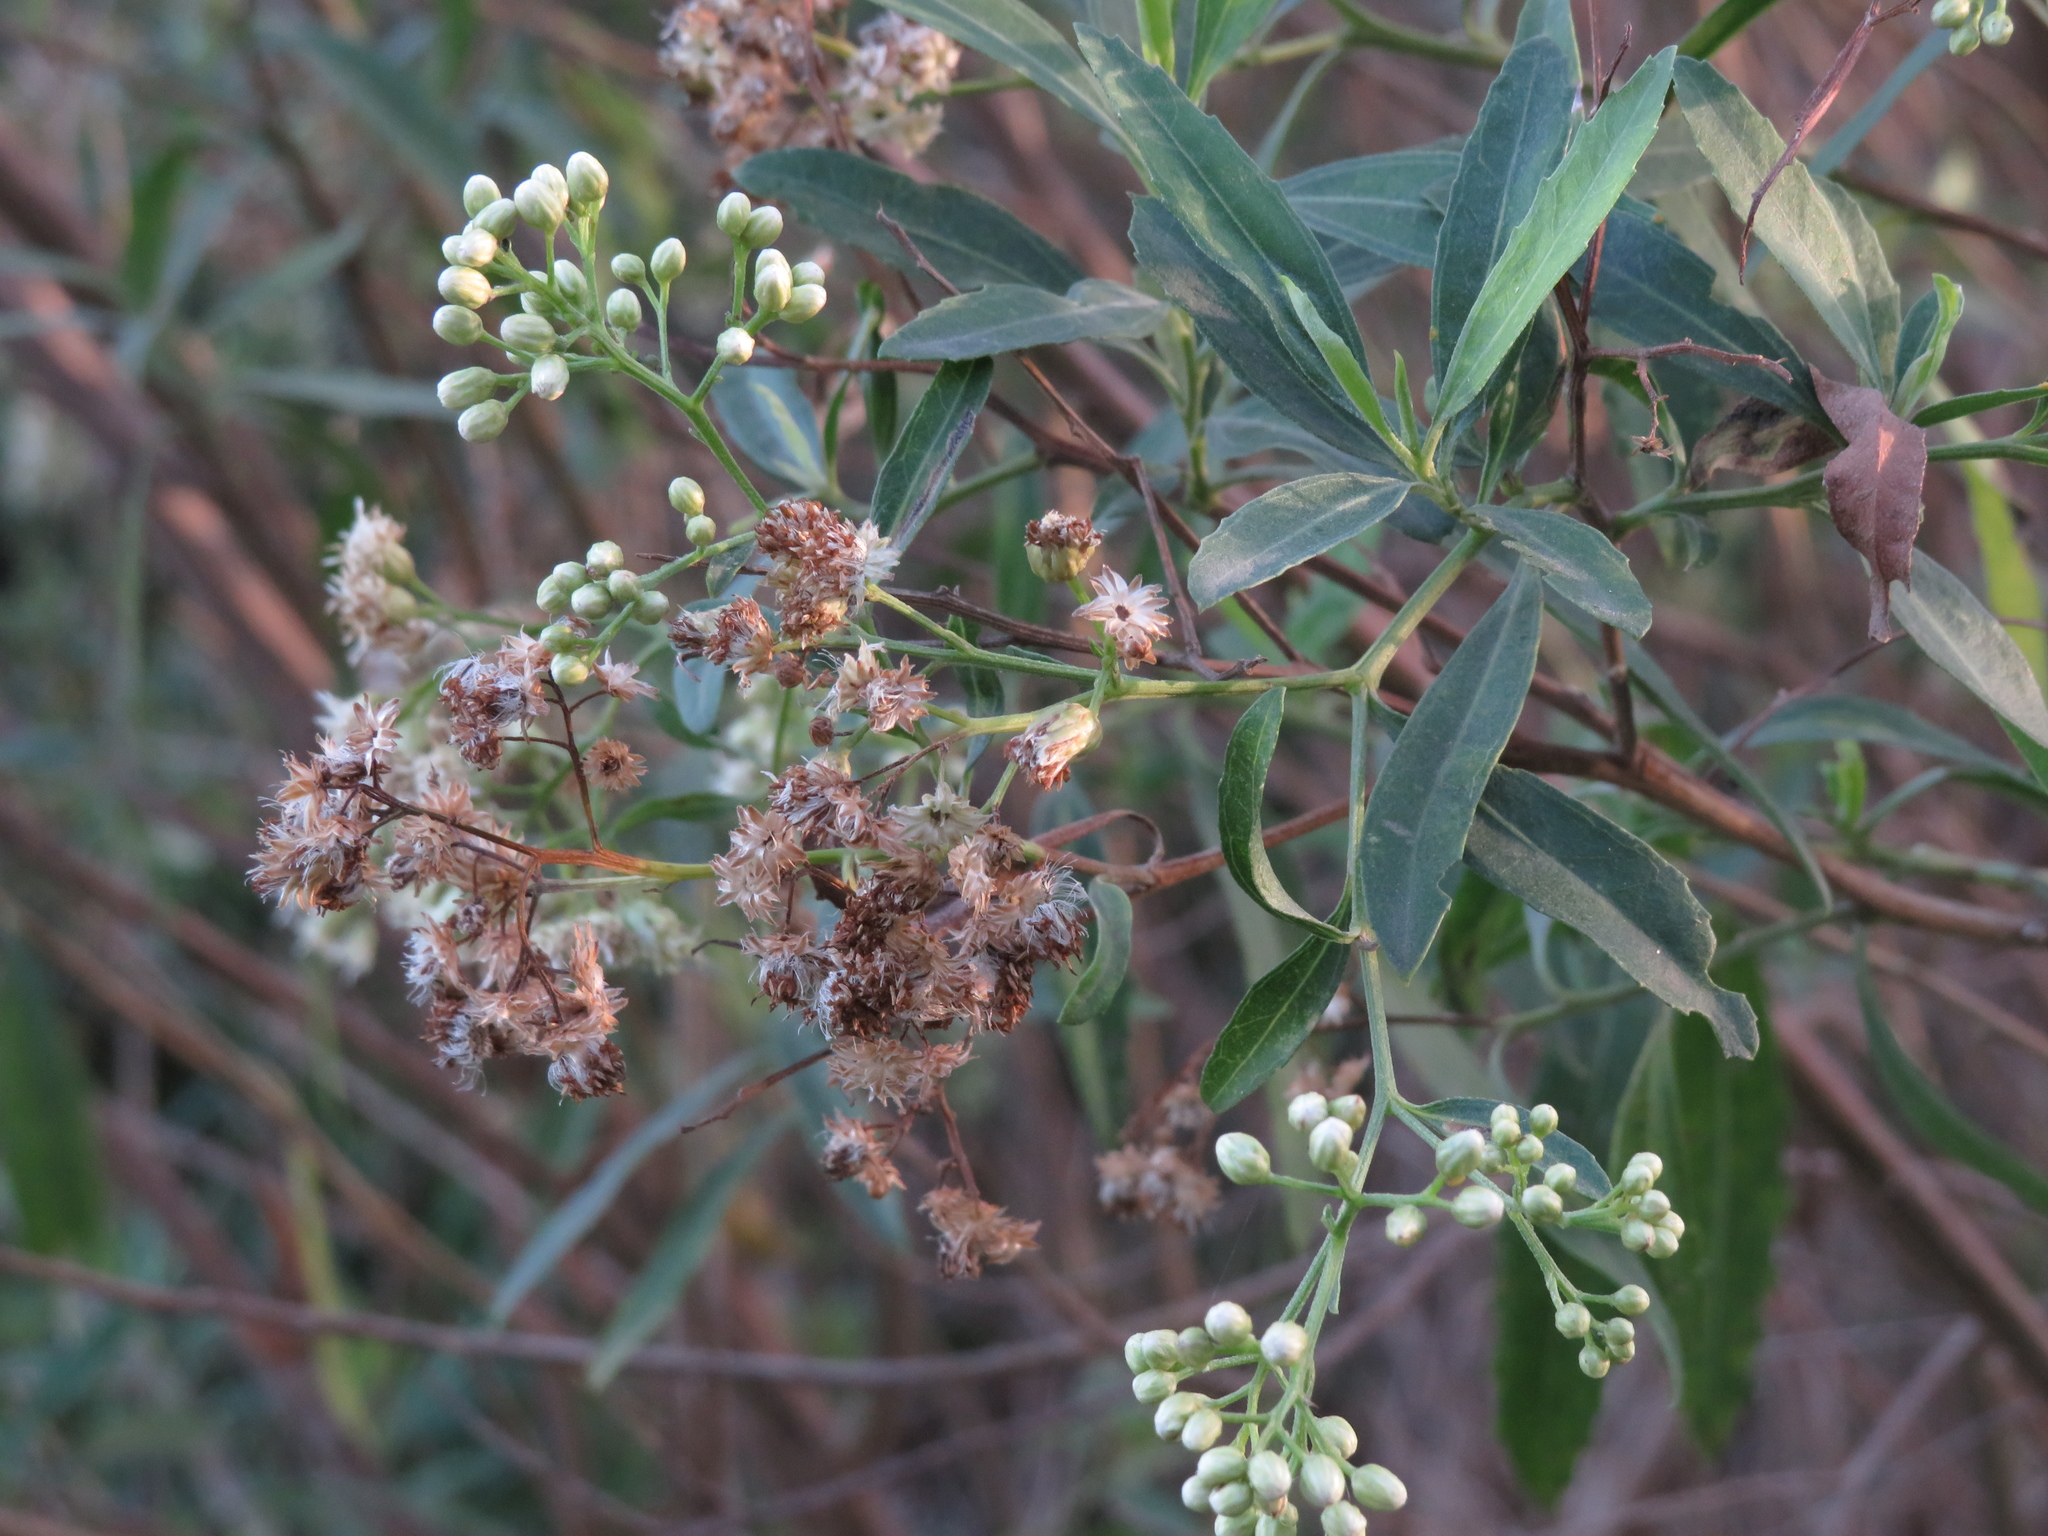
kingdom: Plantae
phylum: Tracheophyta
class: Magnoliopsida
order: Asterales
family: Asteraceae
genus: Baccharis
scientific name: Baccharis salicifolia
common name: Sticky baccharis
